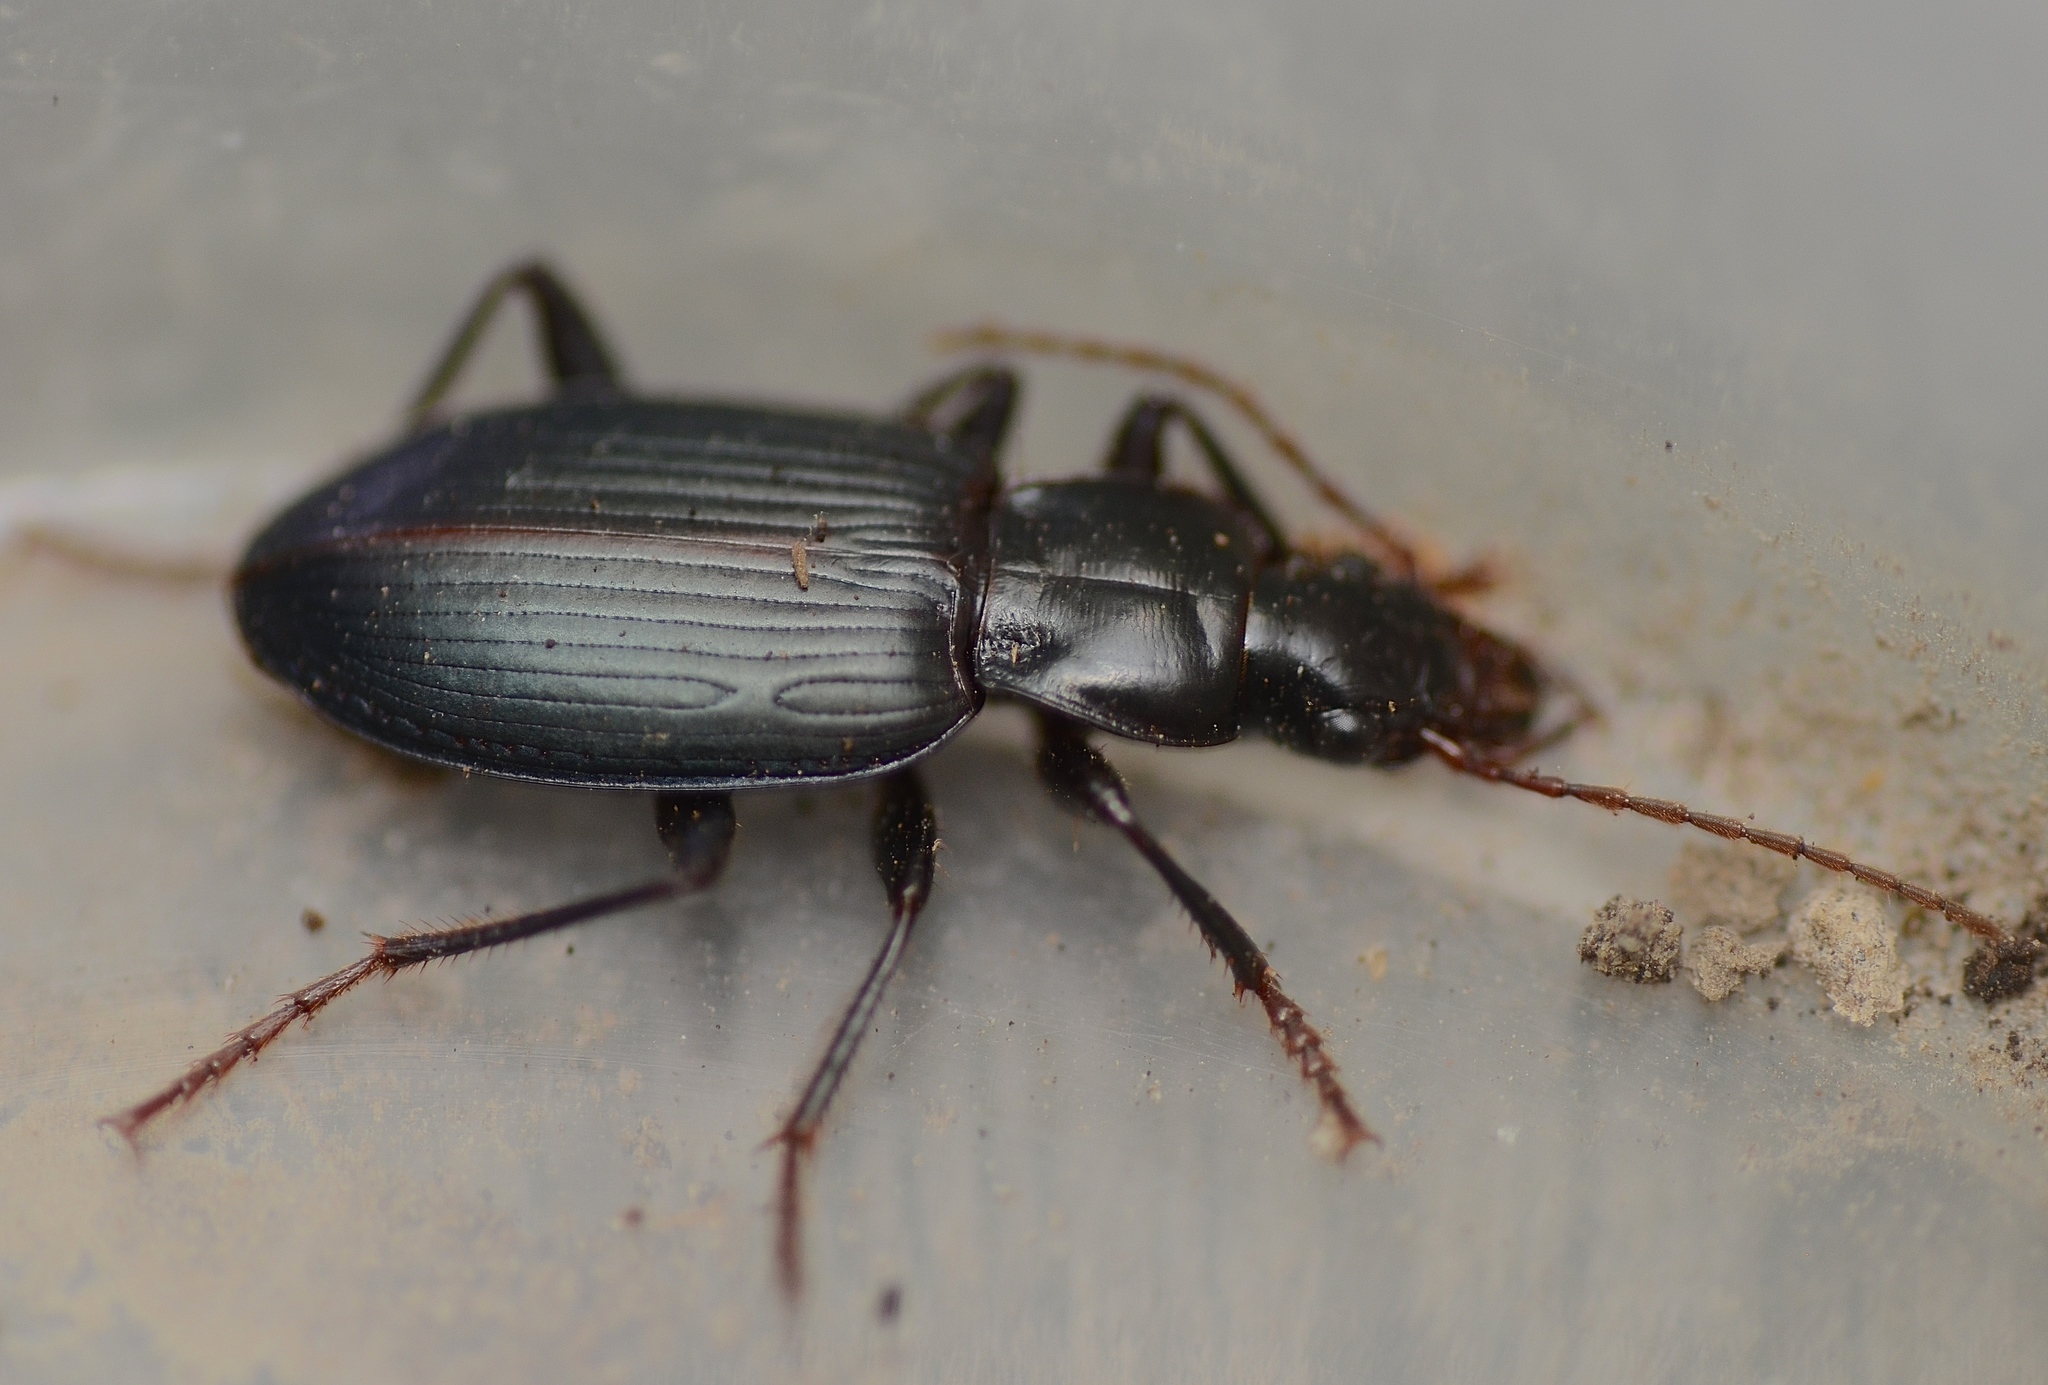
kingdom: Animalia
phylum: Arthropoda
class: Insecta
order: Coleoptera
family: Carabidae
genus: Laemostenus
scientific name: Laemostenus complanatus
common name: Cosmopolitan ground beetle
